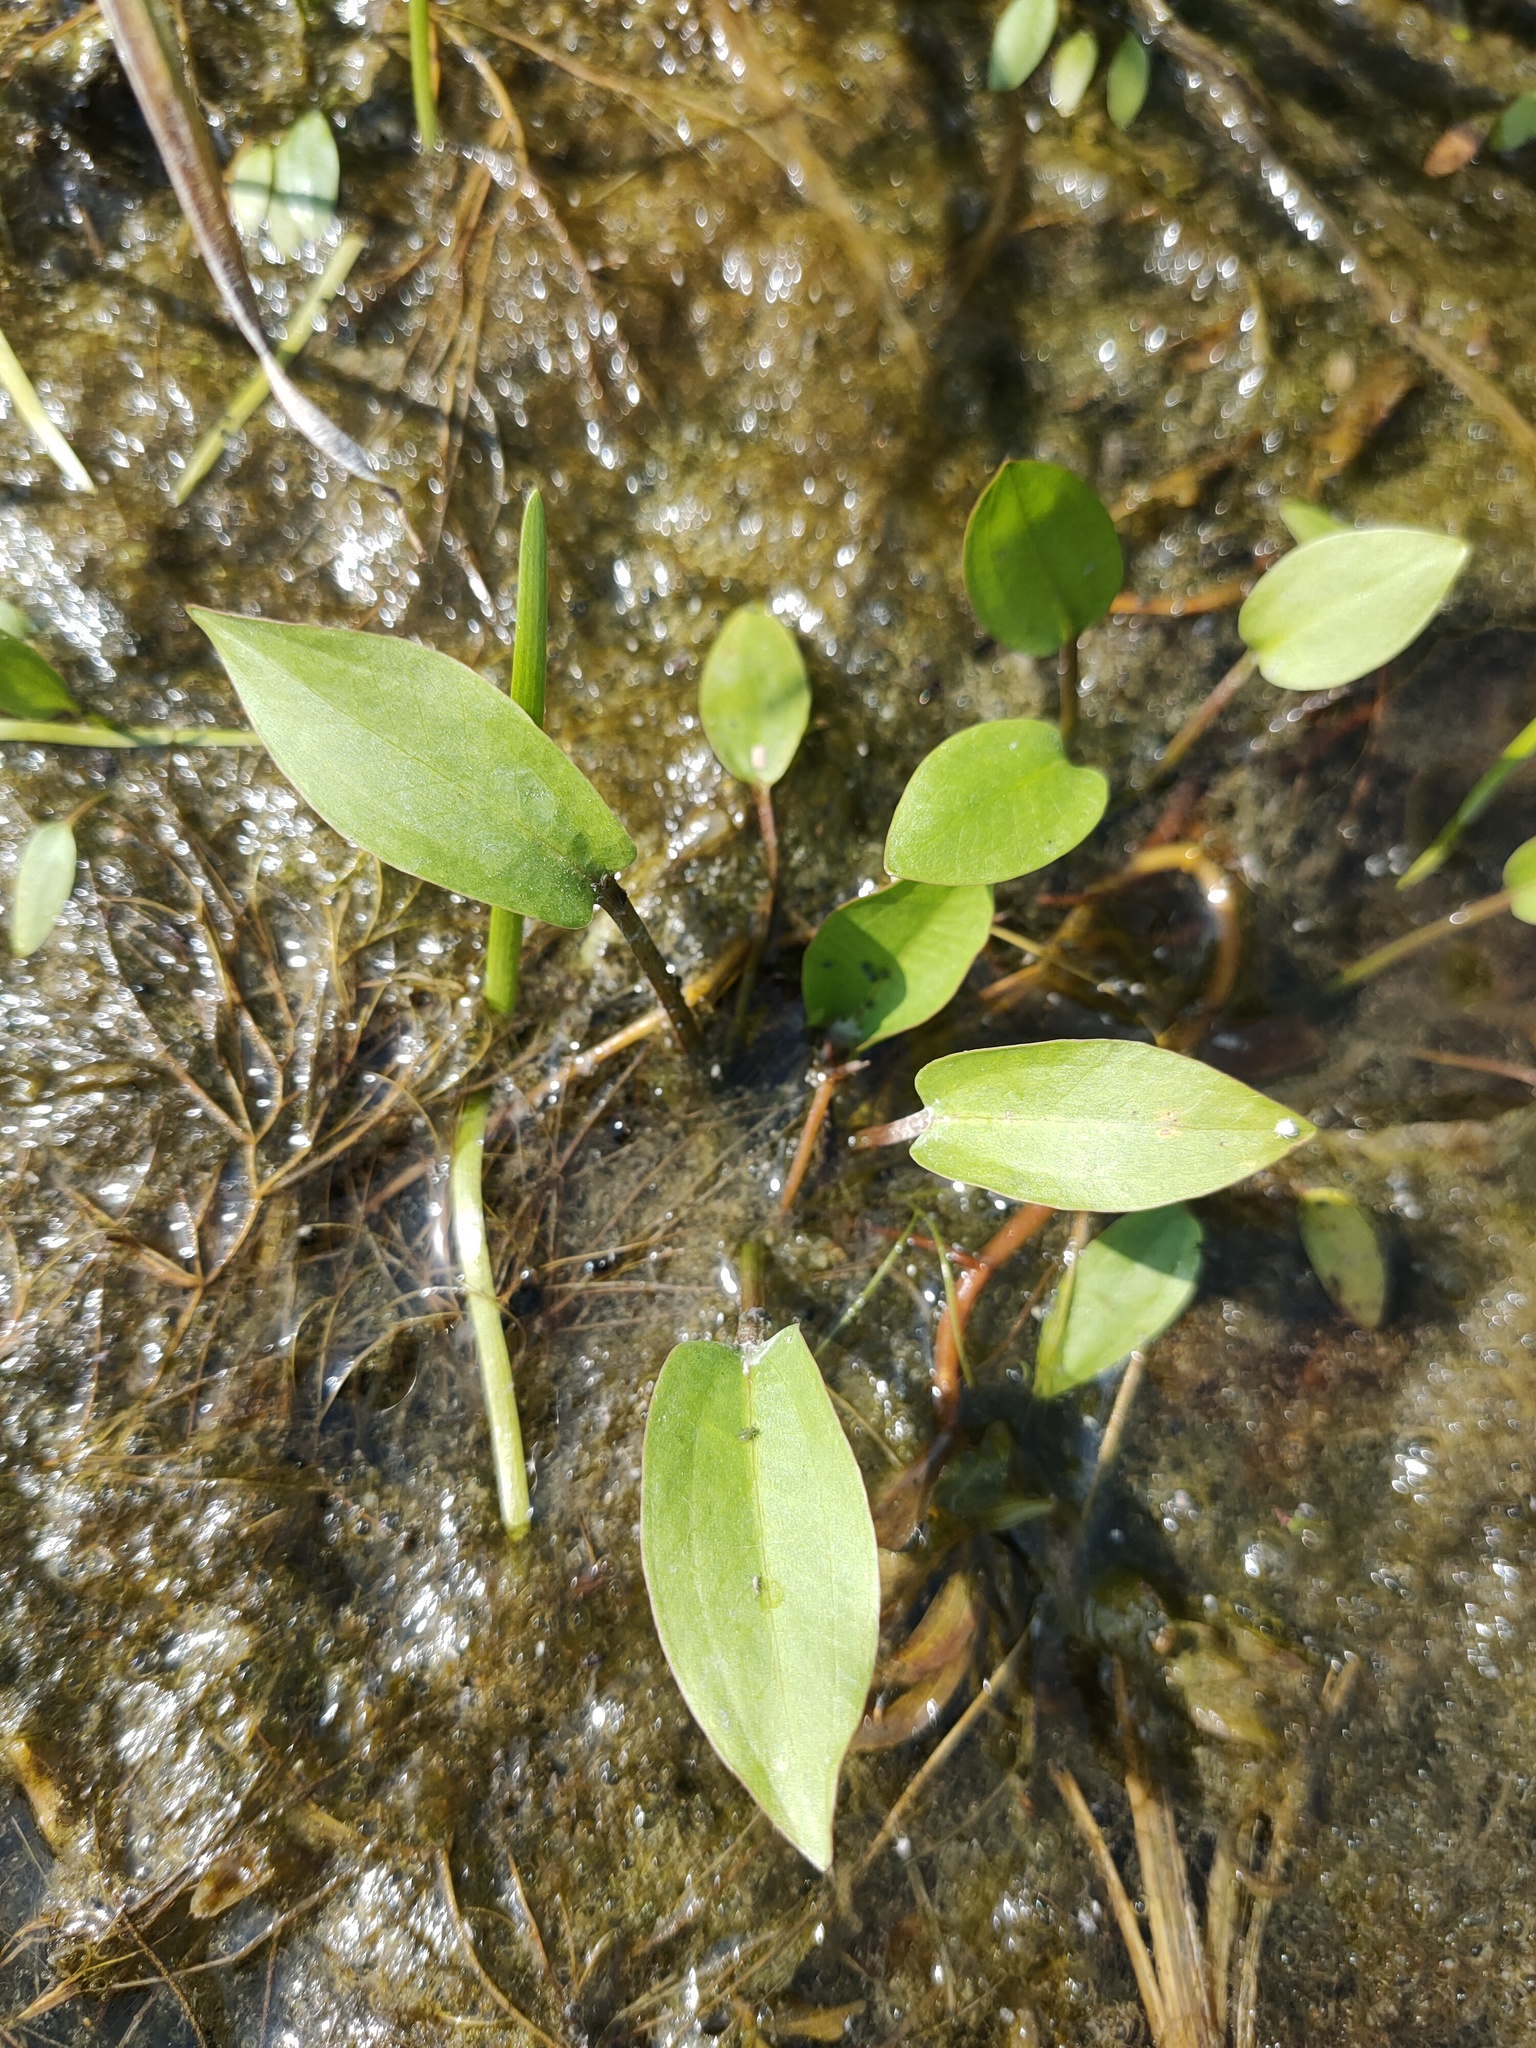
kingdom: Plantae
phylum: Tracheophyta
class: Liliopsida
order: Alismatales
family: Alismataceae
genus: Alisma
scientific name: Alisma plantago-aquatica
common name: Water-plantain
